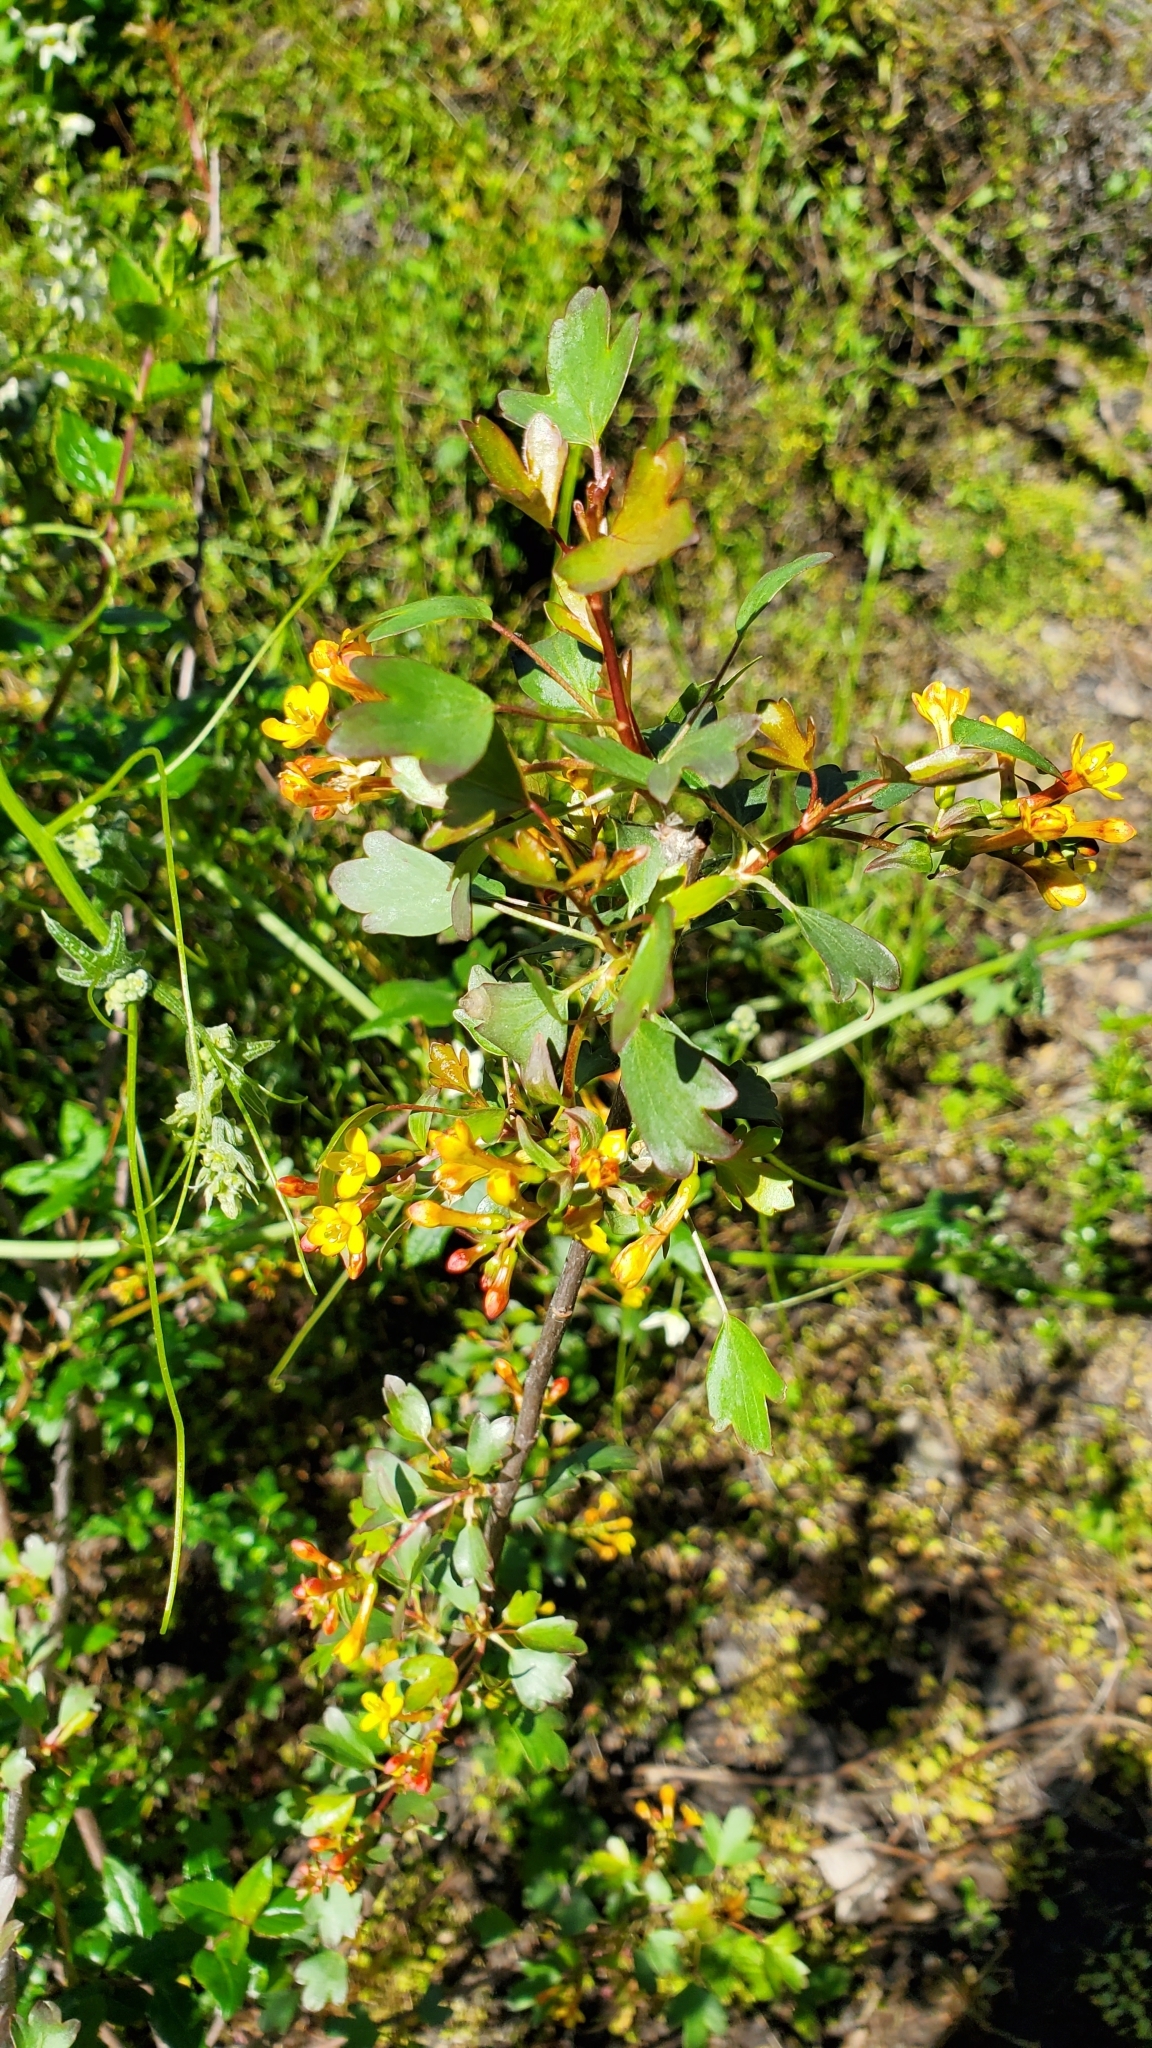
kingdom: Plantae
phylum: Tracheophyta
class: Magnoliopsida
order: Saxifragales
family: Grossulariaceae
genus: Ribes
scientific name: Ribes aureum
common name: Golden currant
